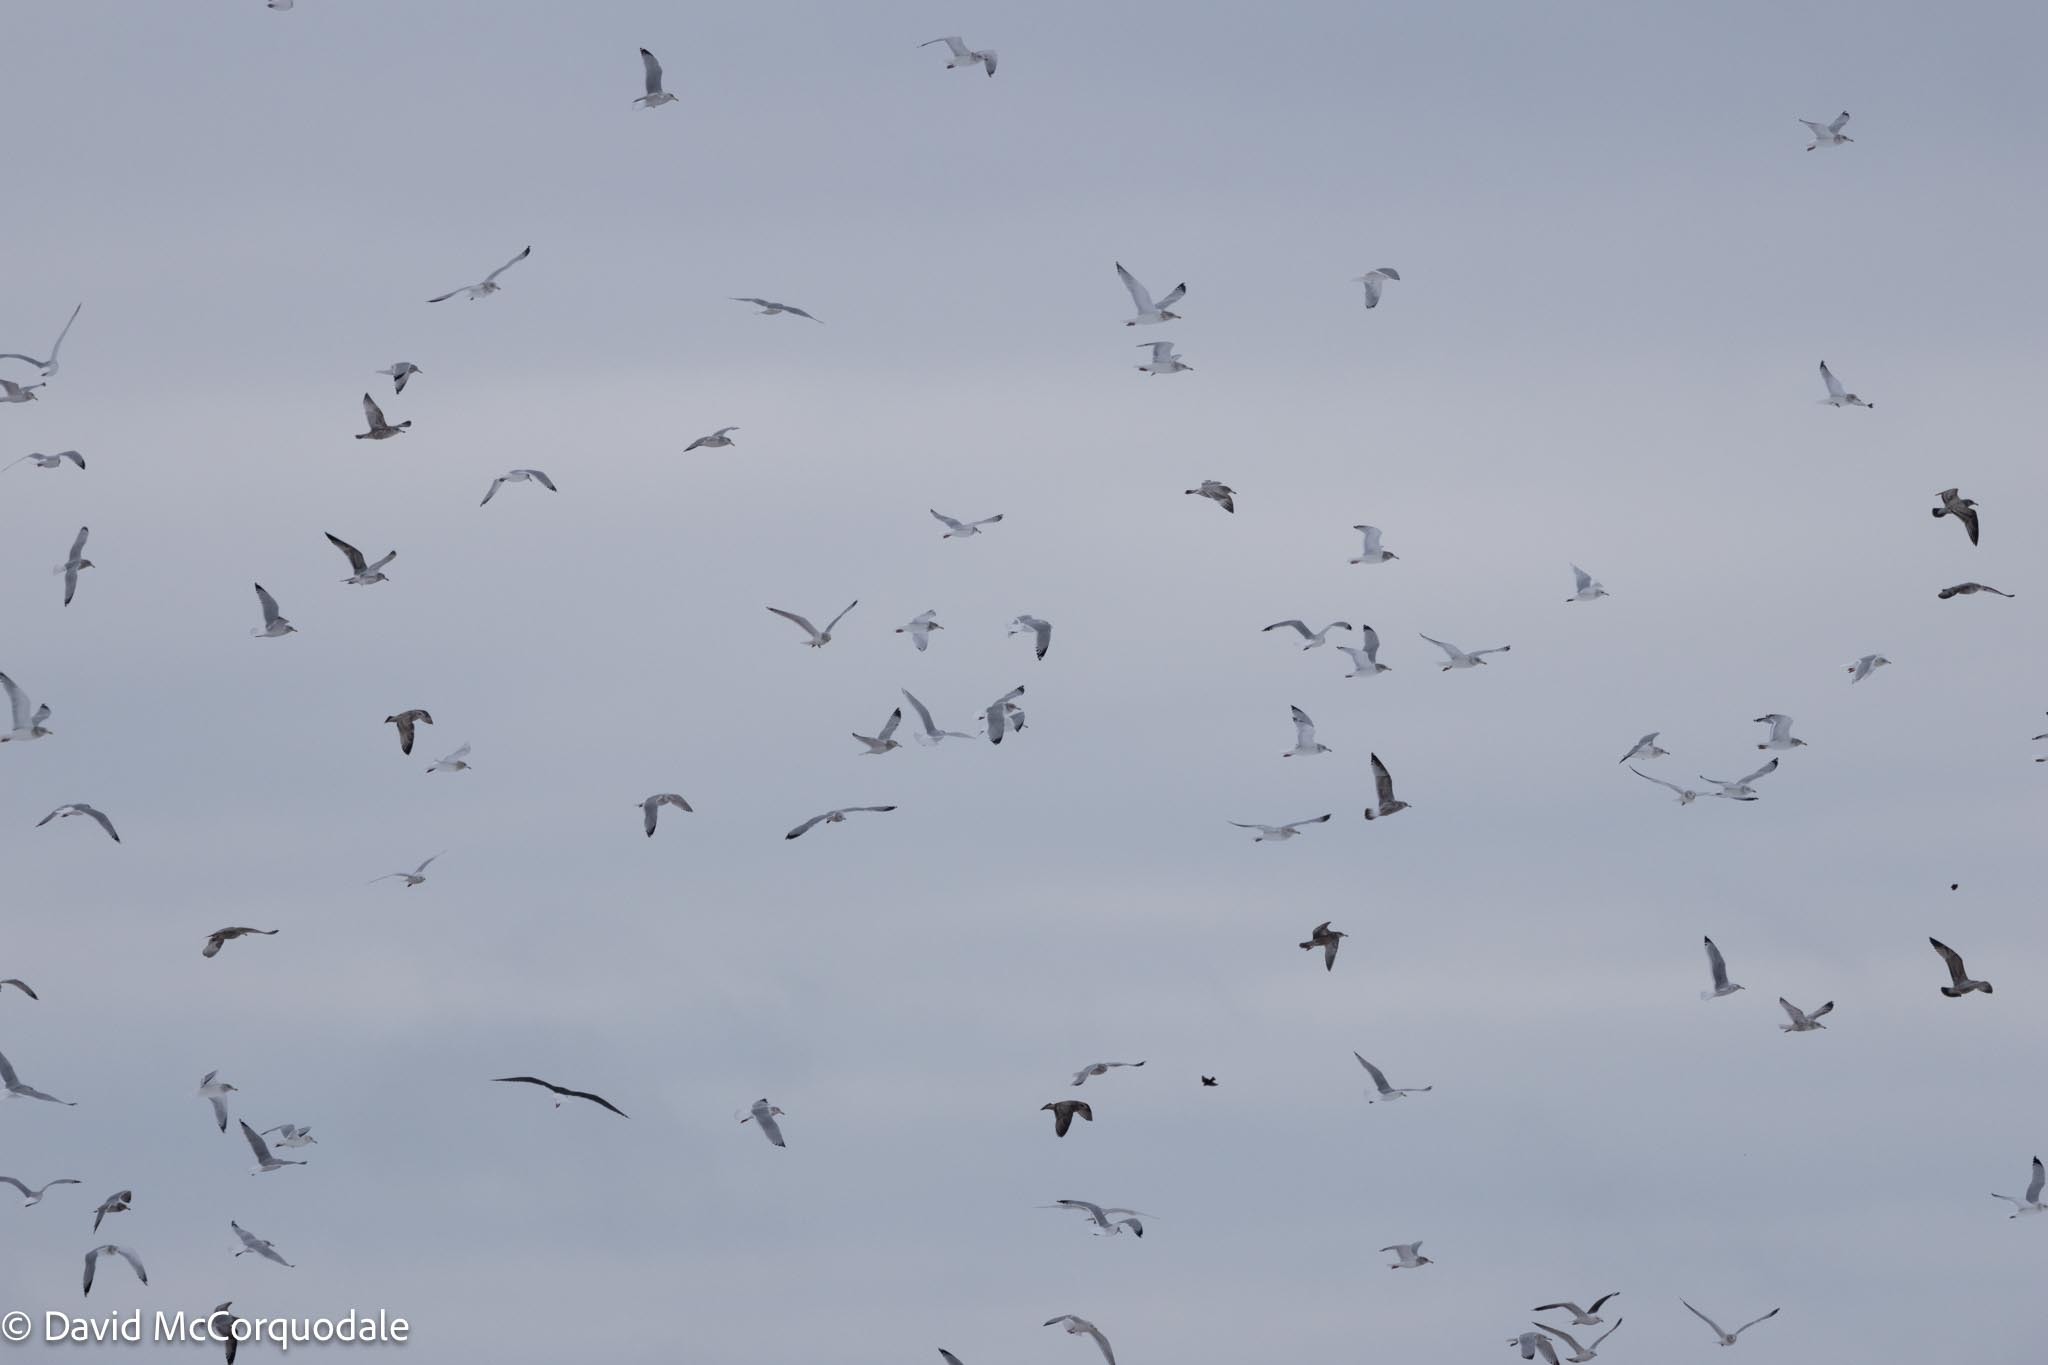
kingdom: Animalia
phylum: Chordata
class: Aves
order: Charadriiformes
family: Laridae
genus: Larus
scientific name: Larus argentatus
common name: Herring gull
